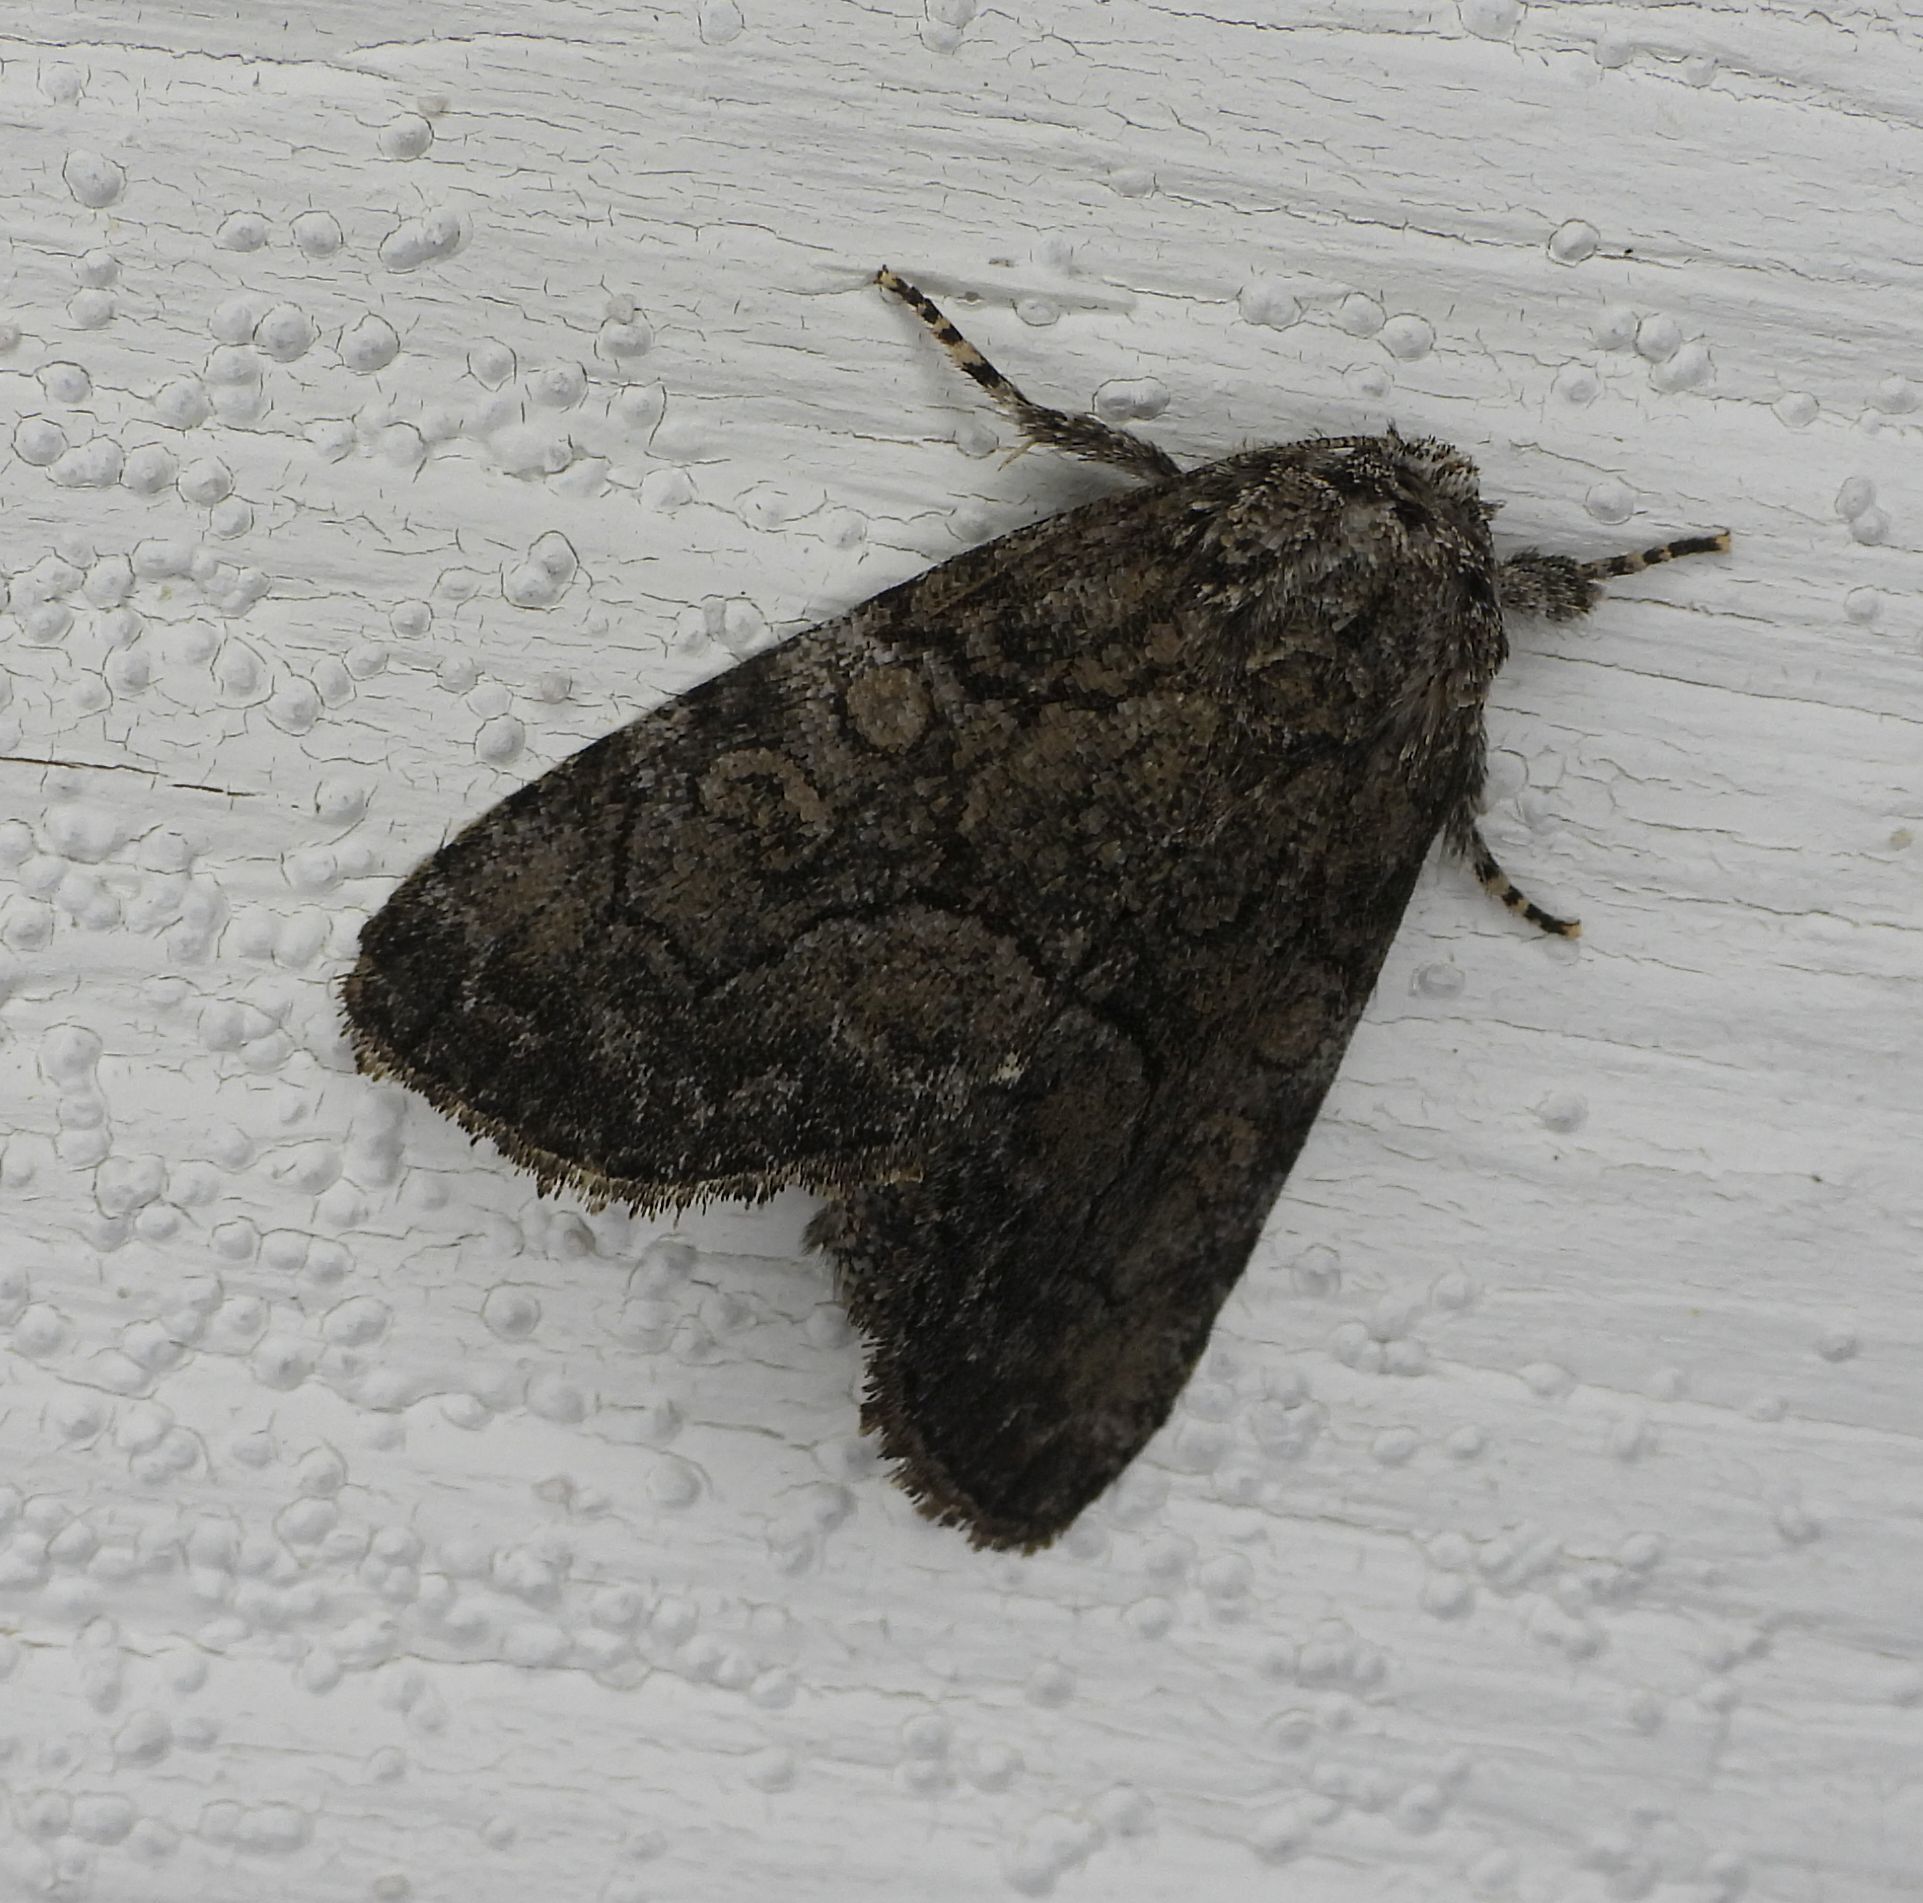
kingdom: Animalia
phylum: Arthropoda
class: Insecta
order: Lepidoptera
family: Noctuidae
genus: Raphia
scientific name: Raphia frater
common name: Brother
